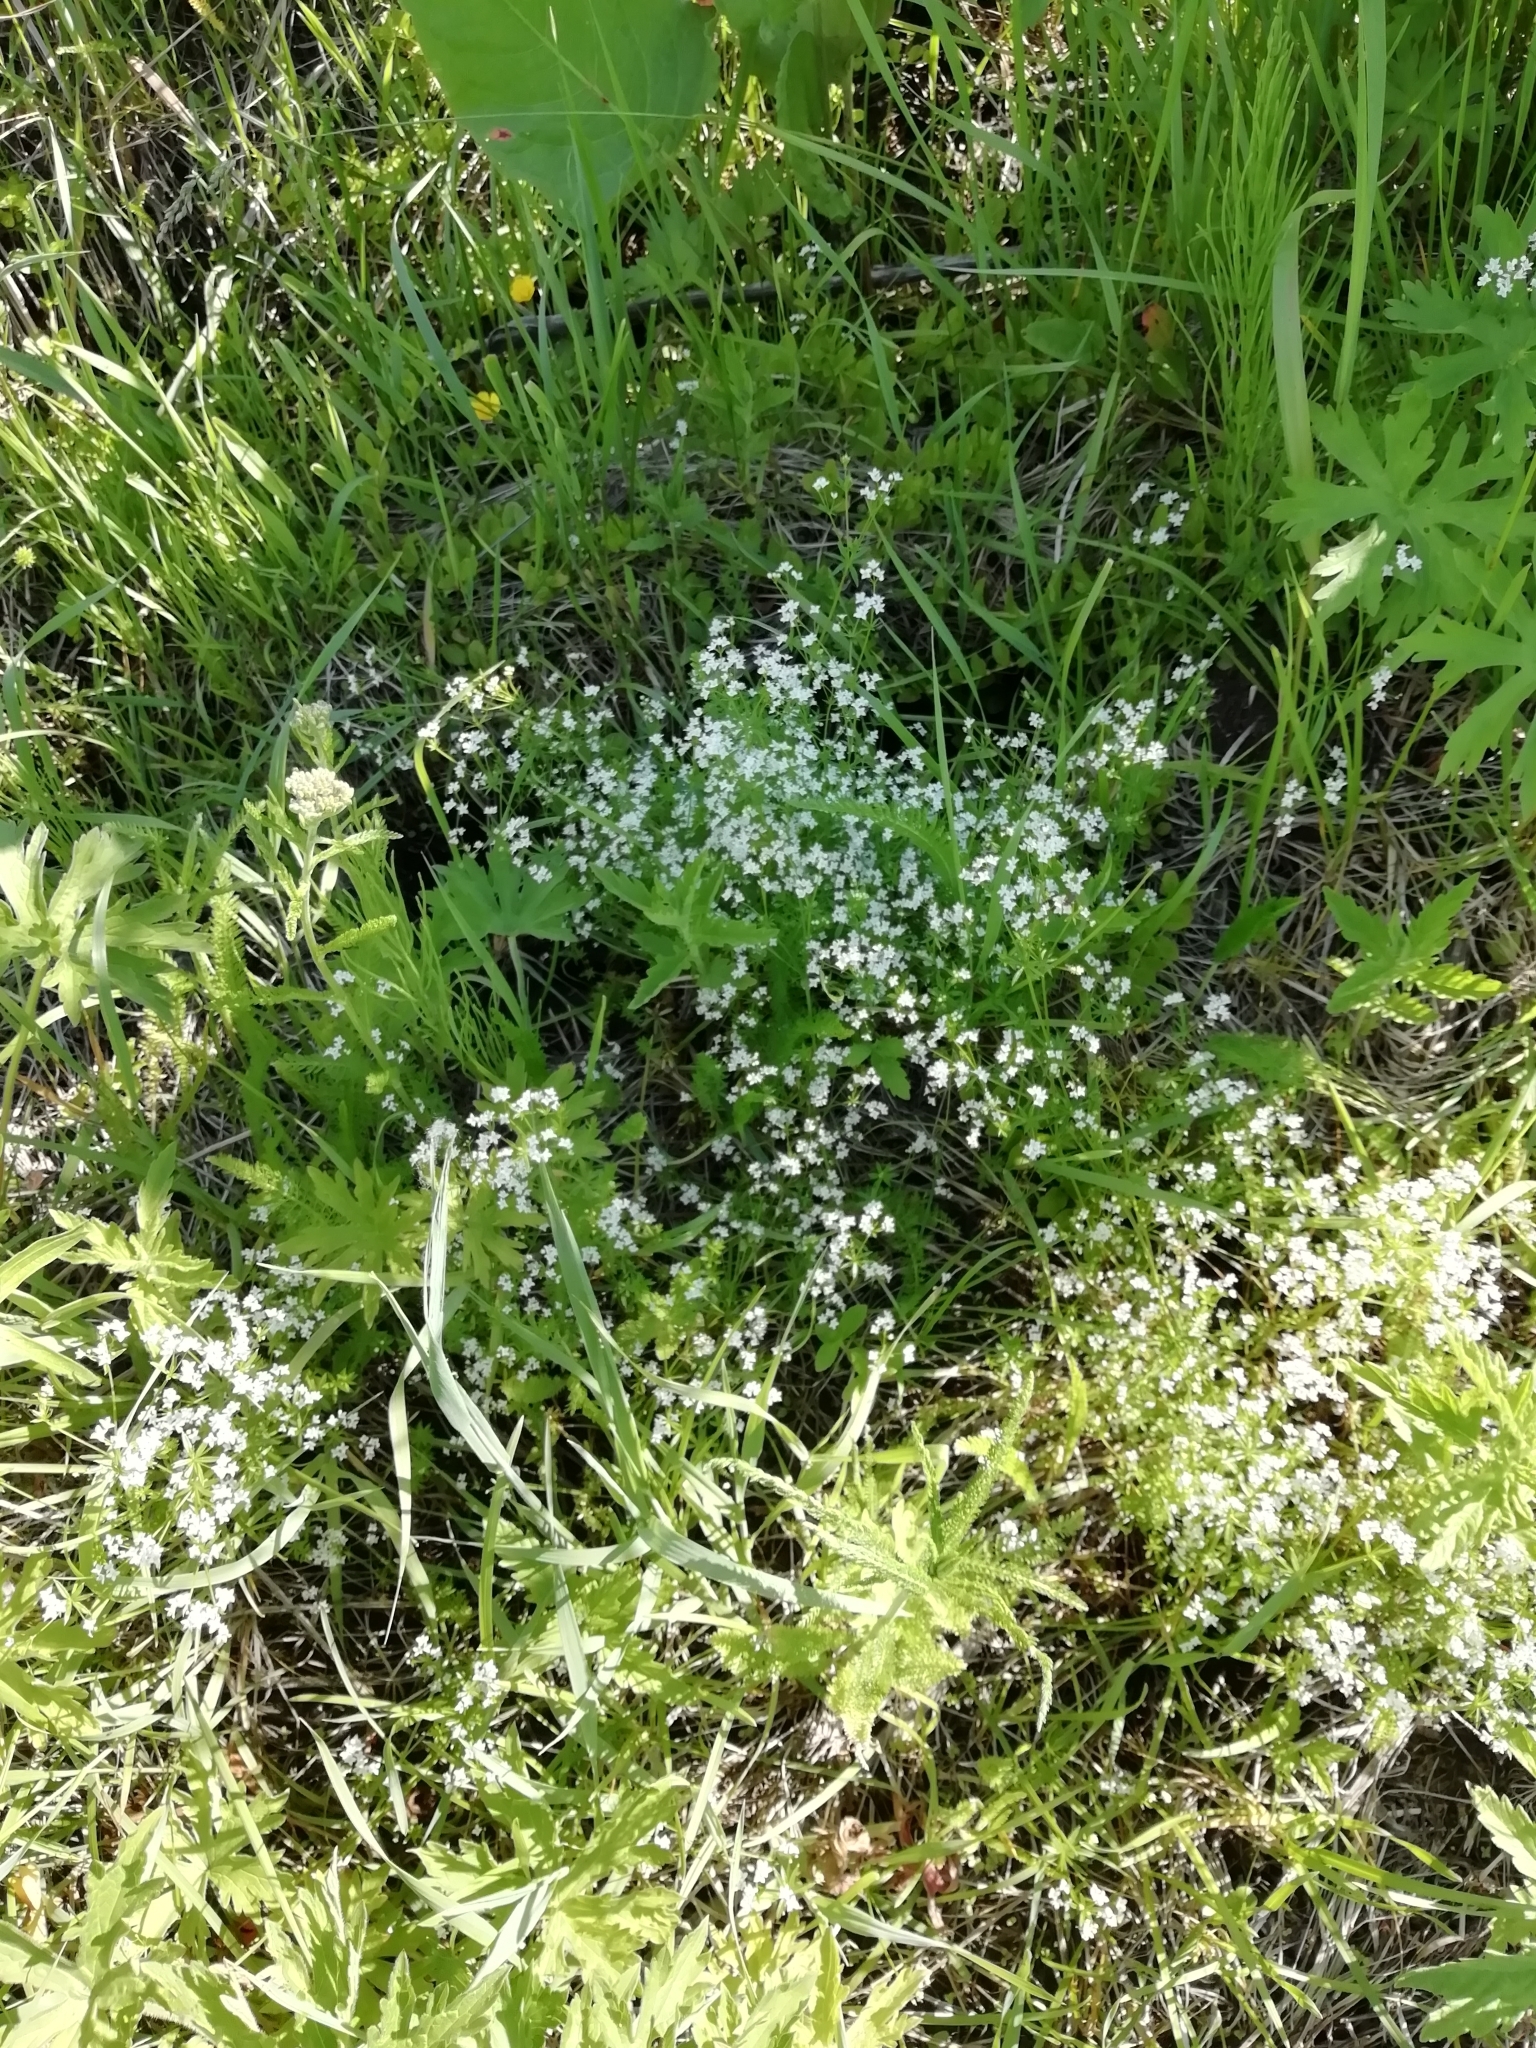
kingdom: Plantae
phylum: Tracheophyta
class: Magnoliopsida
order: Gentianales
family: Rubiaceae
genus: Galium
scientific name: Galium uliginosum
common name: Fen bedstraw
